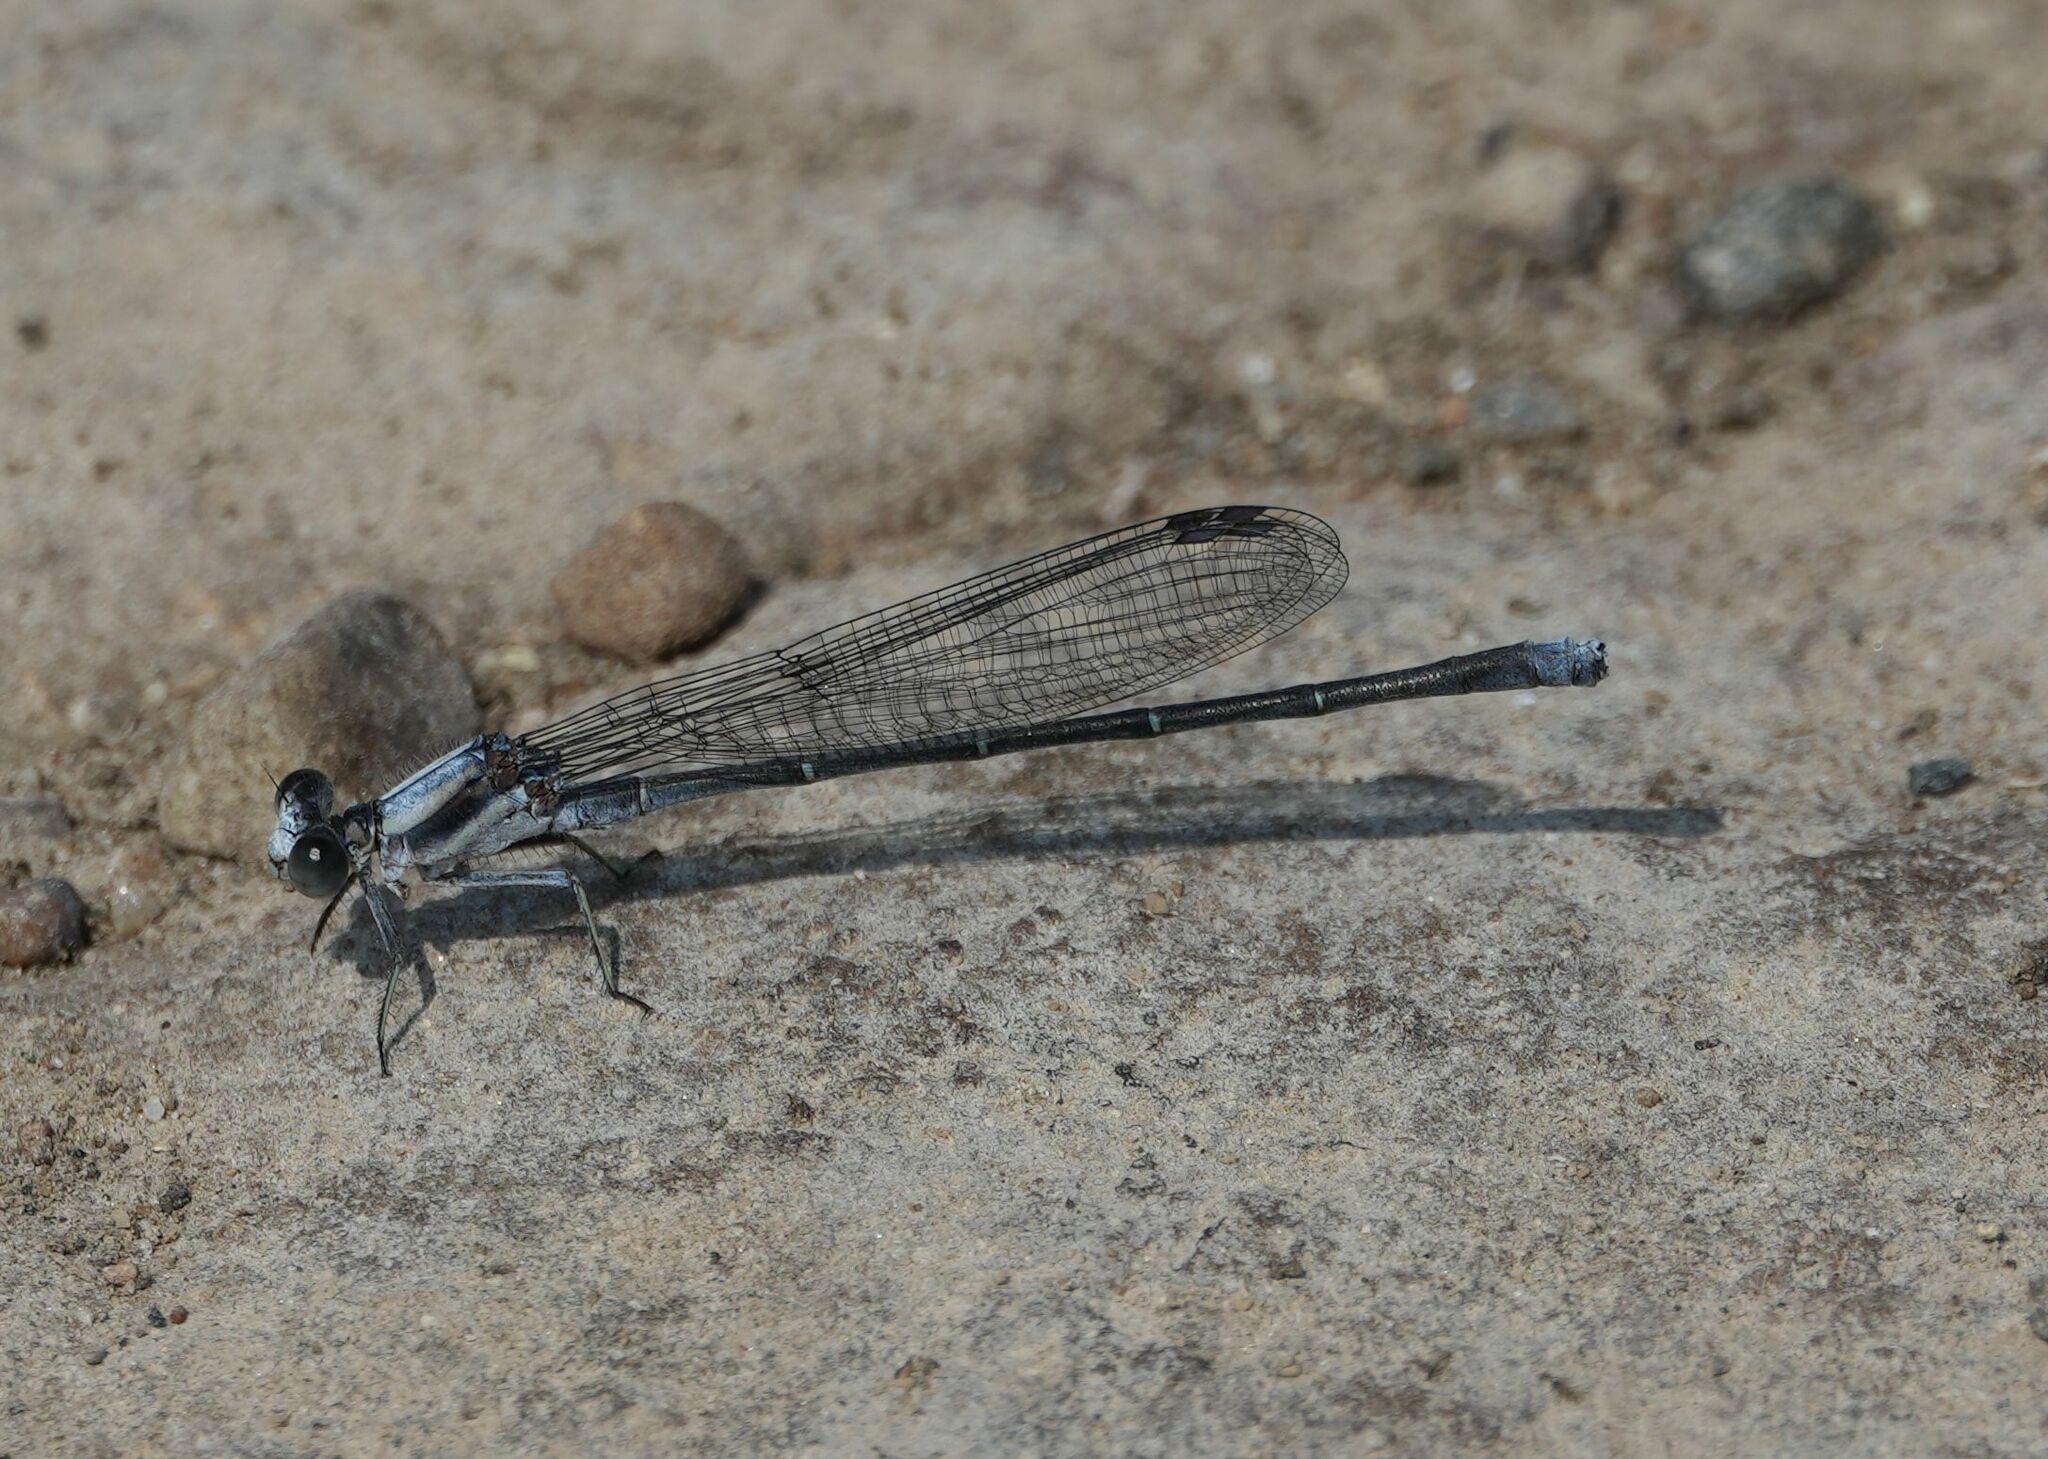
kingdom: Animalia
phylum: Arthropoda
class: Insecta
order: Odonata
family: Coenagrionidae
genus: Argia
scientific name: Argia moesta
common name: Powdered dancer
